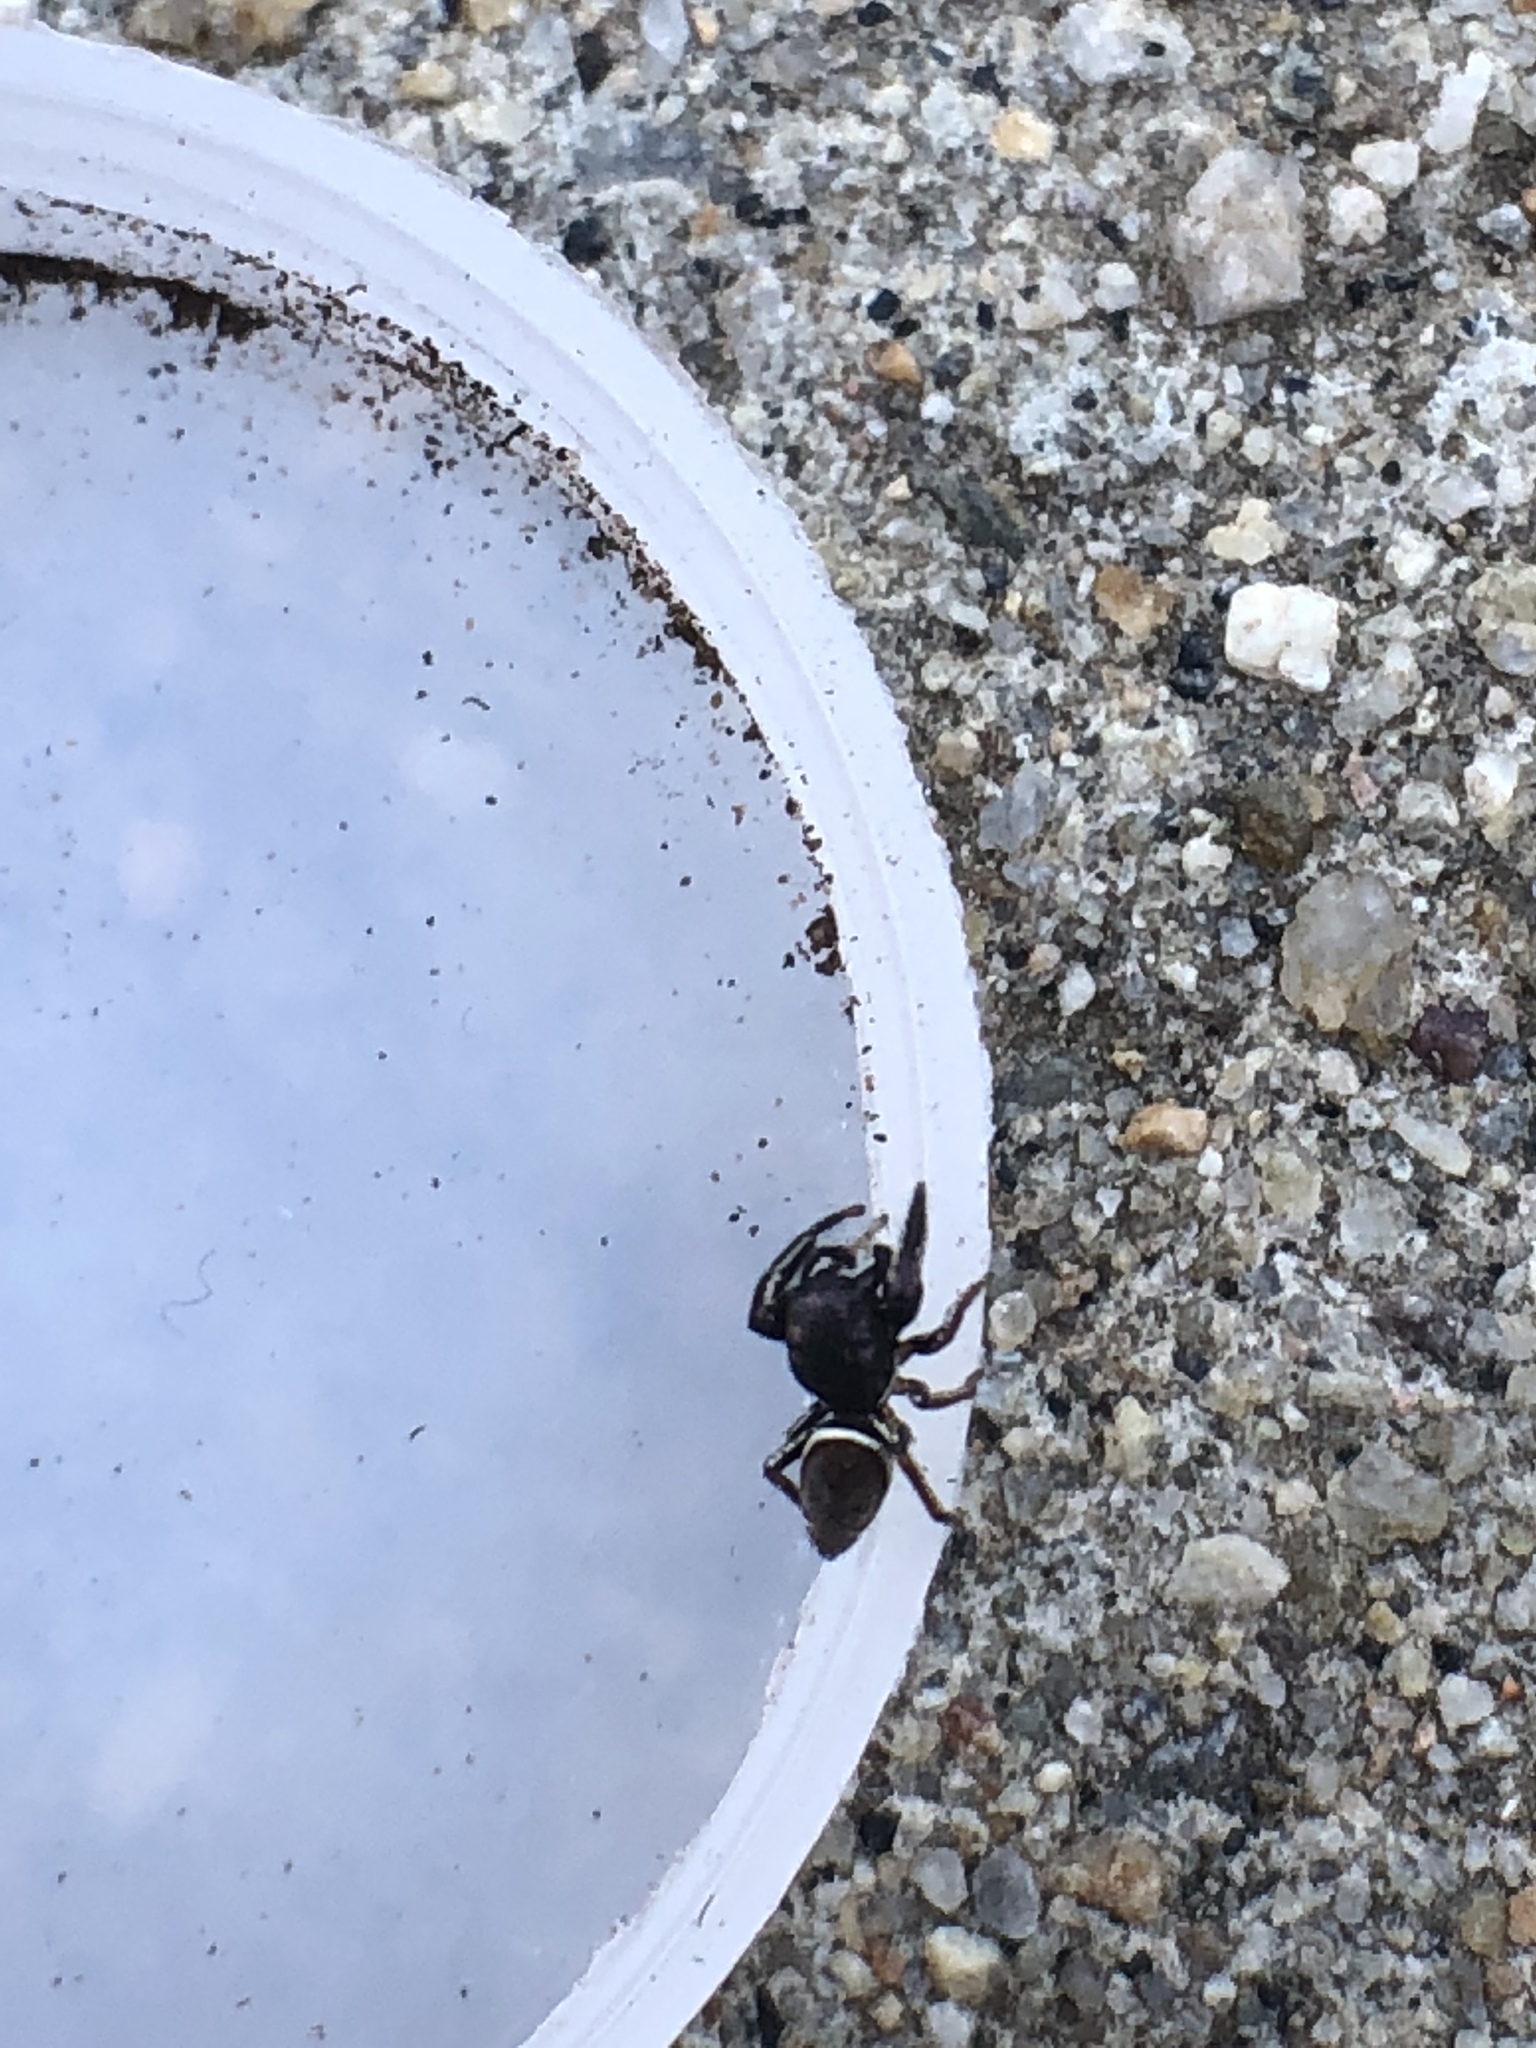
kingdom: Animalia
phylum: Arthropoda
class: Arachnida
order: Araneae
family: Salticidae
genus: Sassacus
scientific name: Sassacus vitis
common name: Jumping spiders
